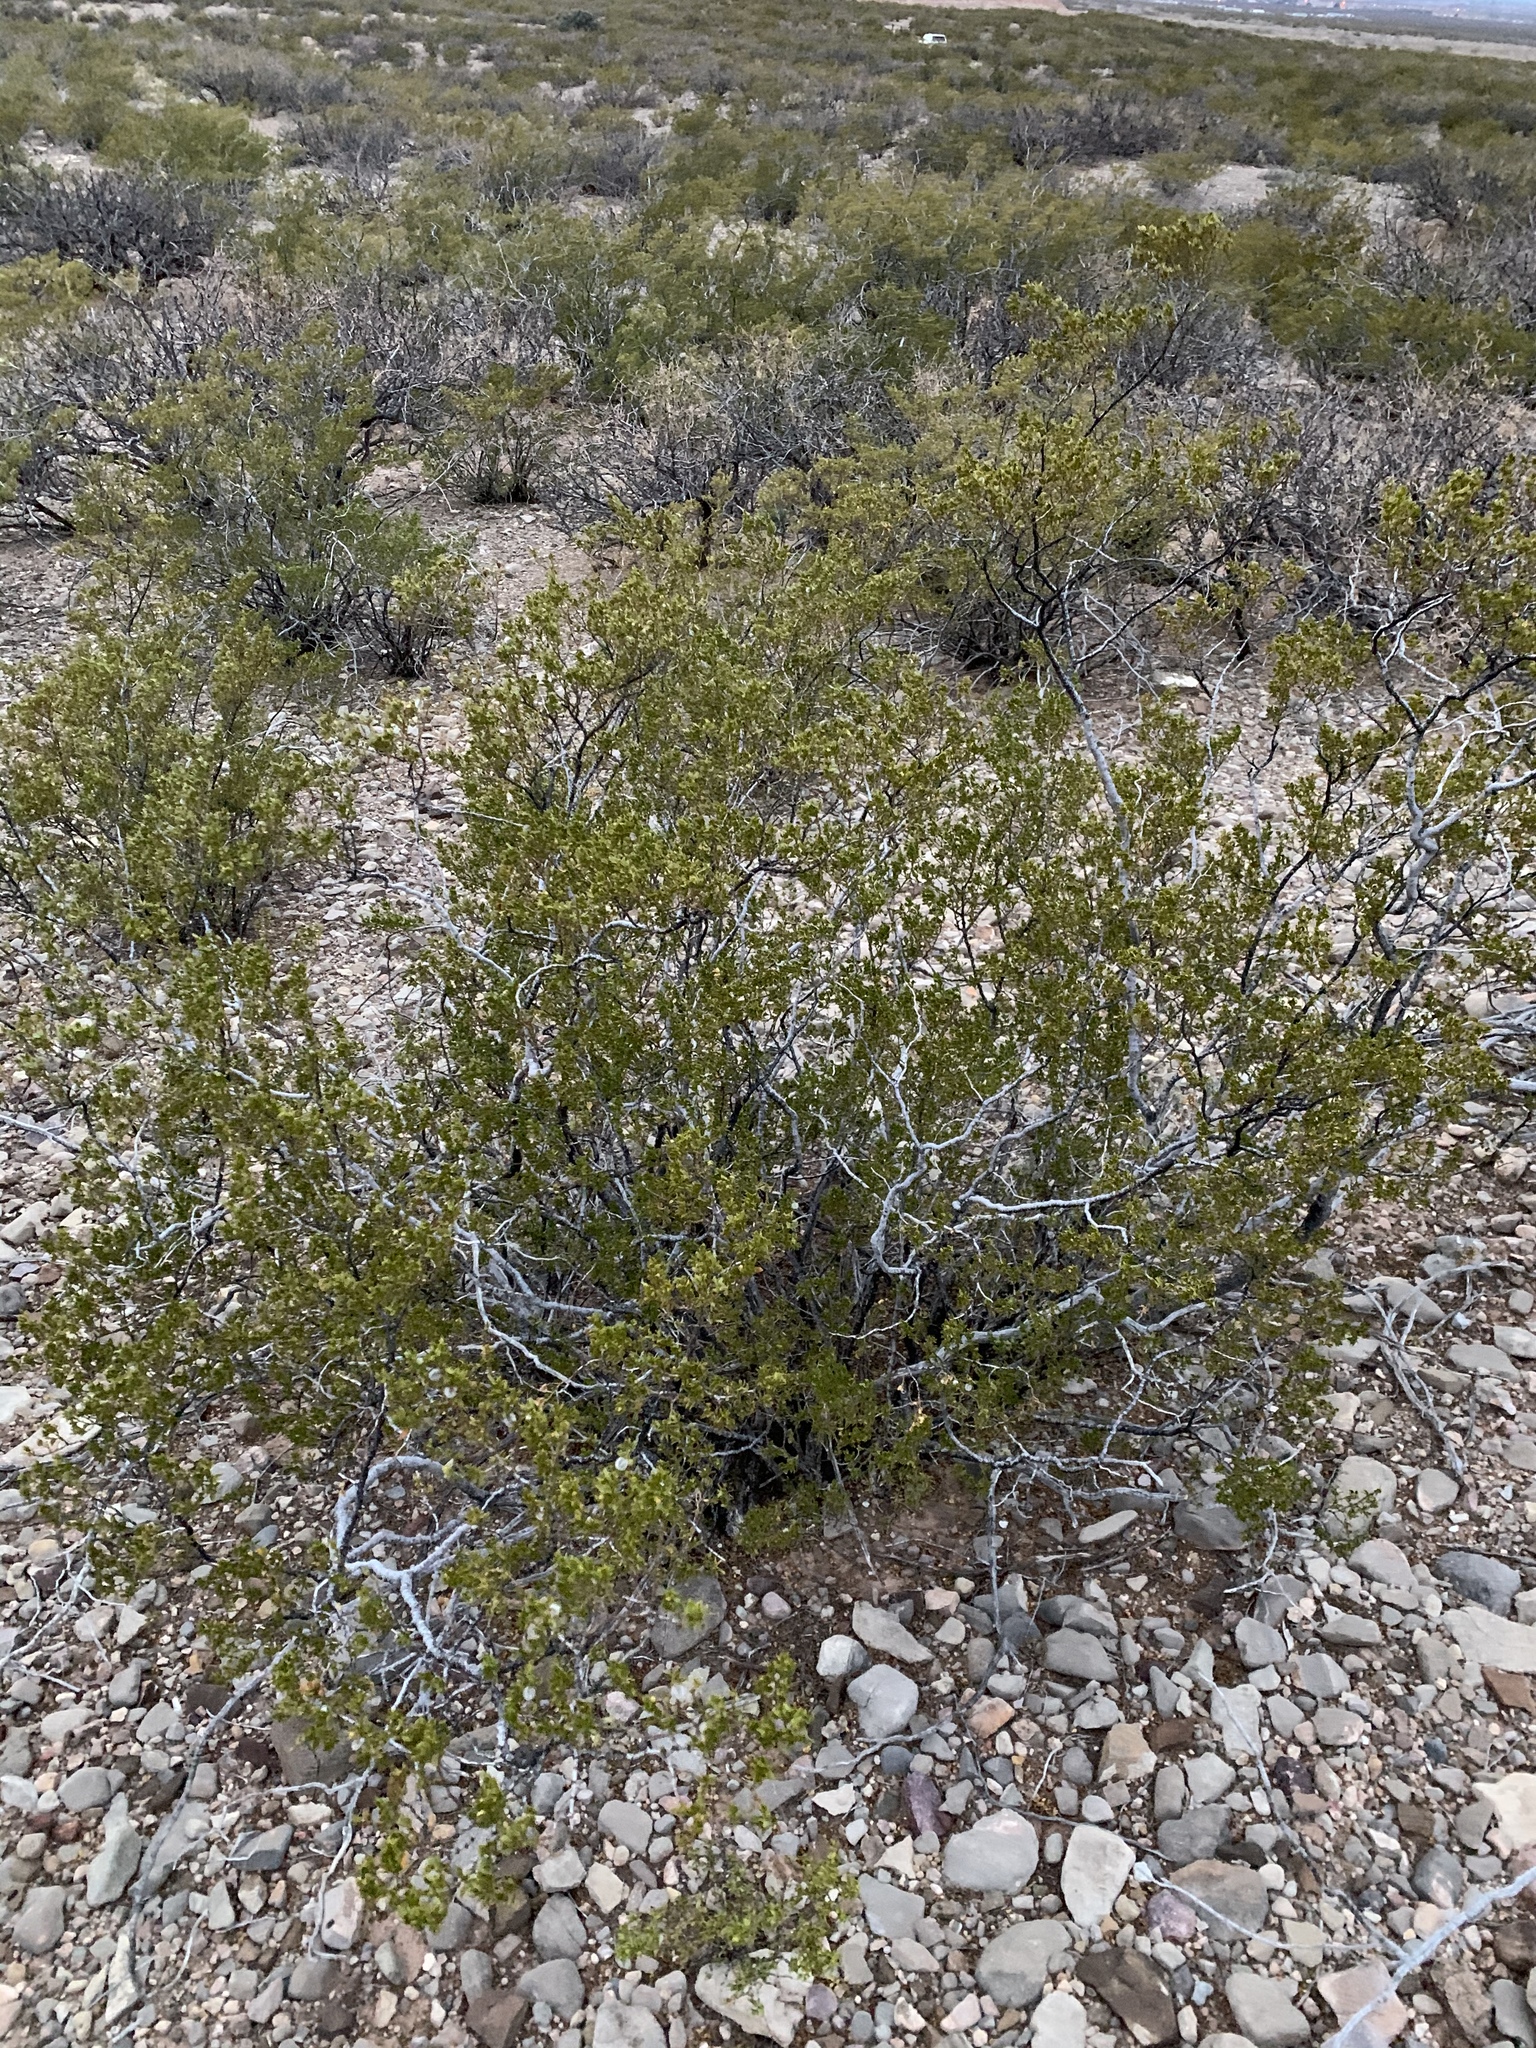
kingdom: Plantae
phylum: Tracheophyta
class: Magnoliopsida
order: Zygophyllales
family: Zygophyllaceae
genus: Larrea
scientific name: Larrea tridentata
